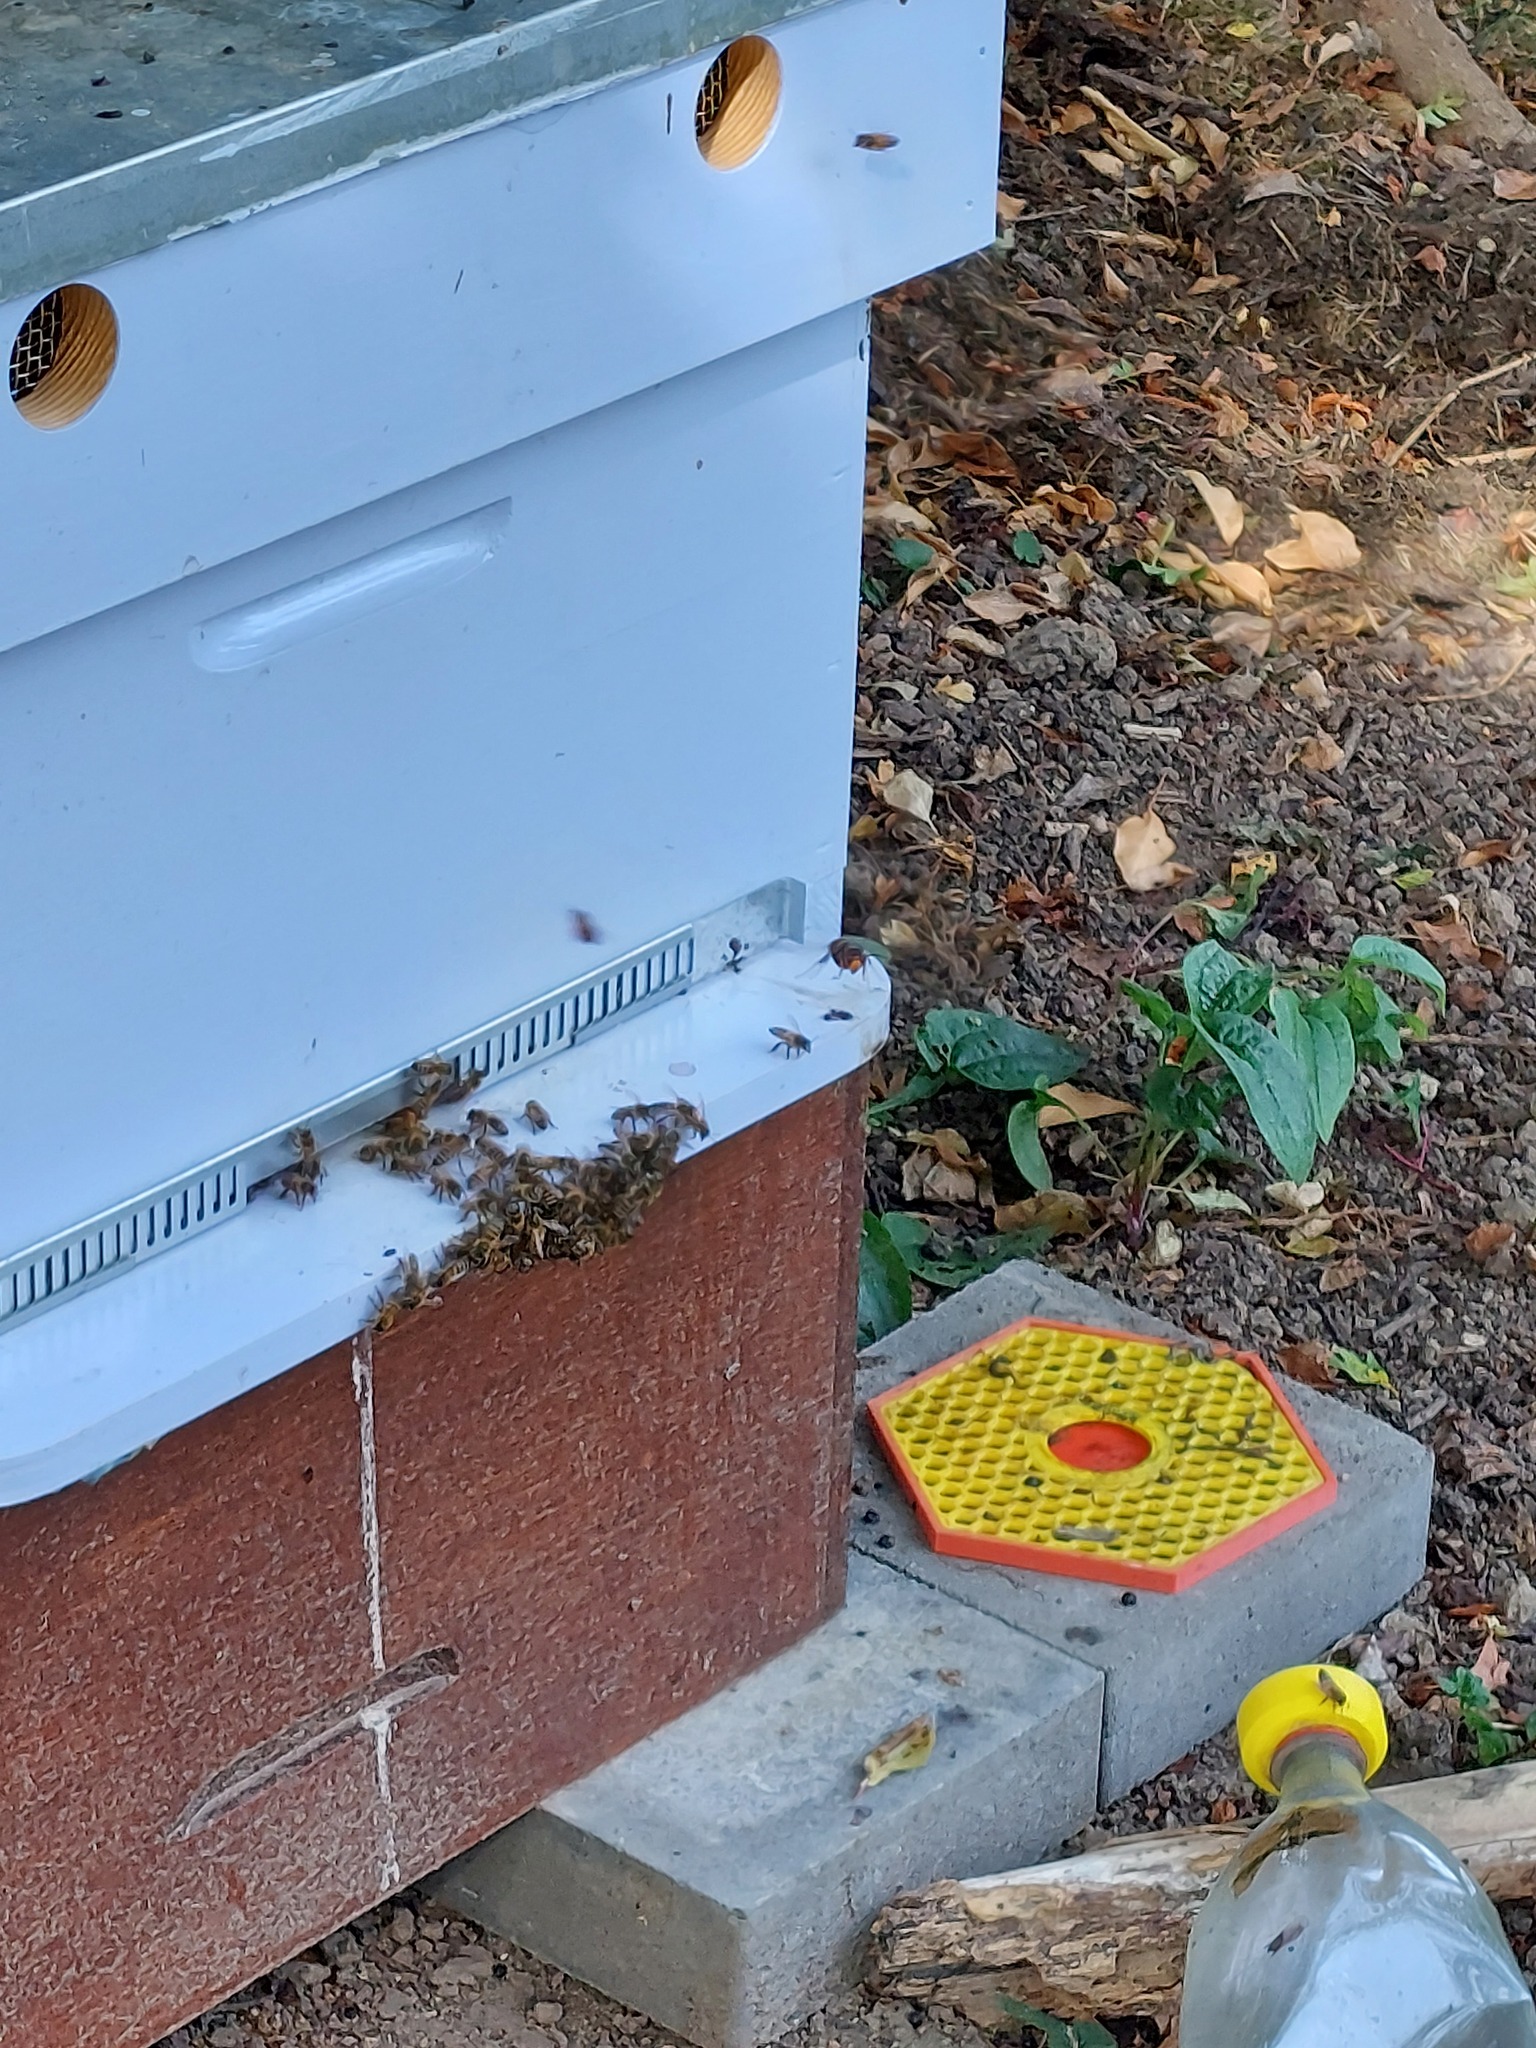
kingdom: Animalia
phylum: Arthropoda
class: Insecta
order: Hymenoptera
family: Vespidae
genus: Vespa
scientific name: Vespa velutina
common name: Asian hornet
